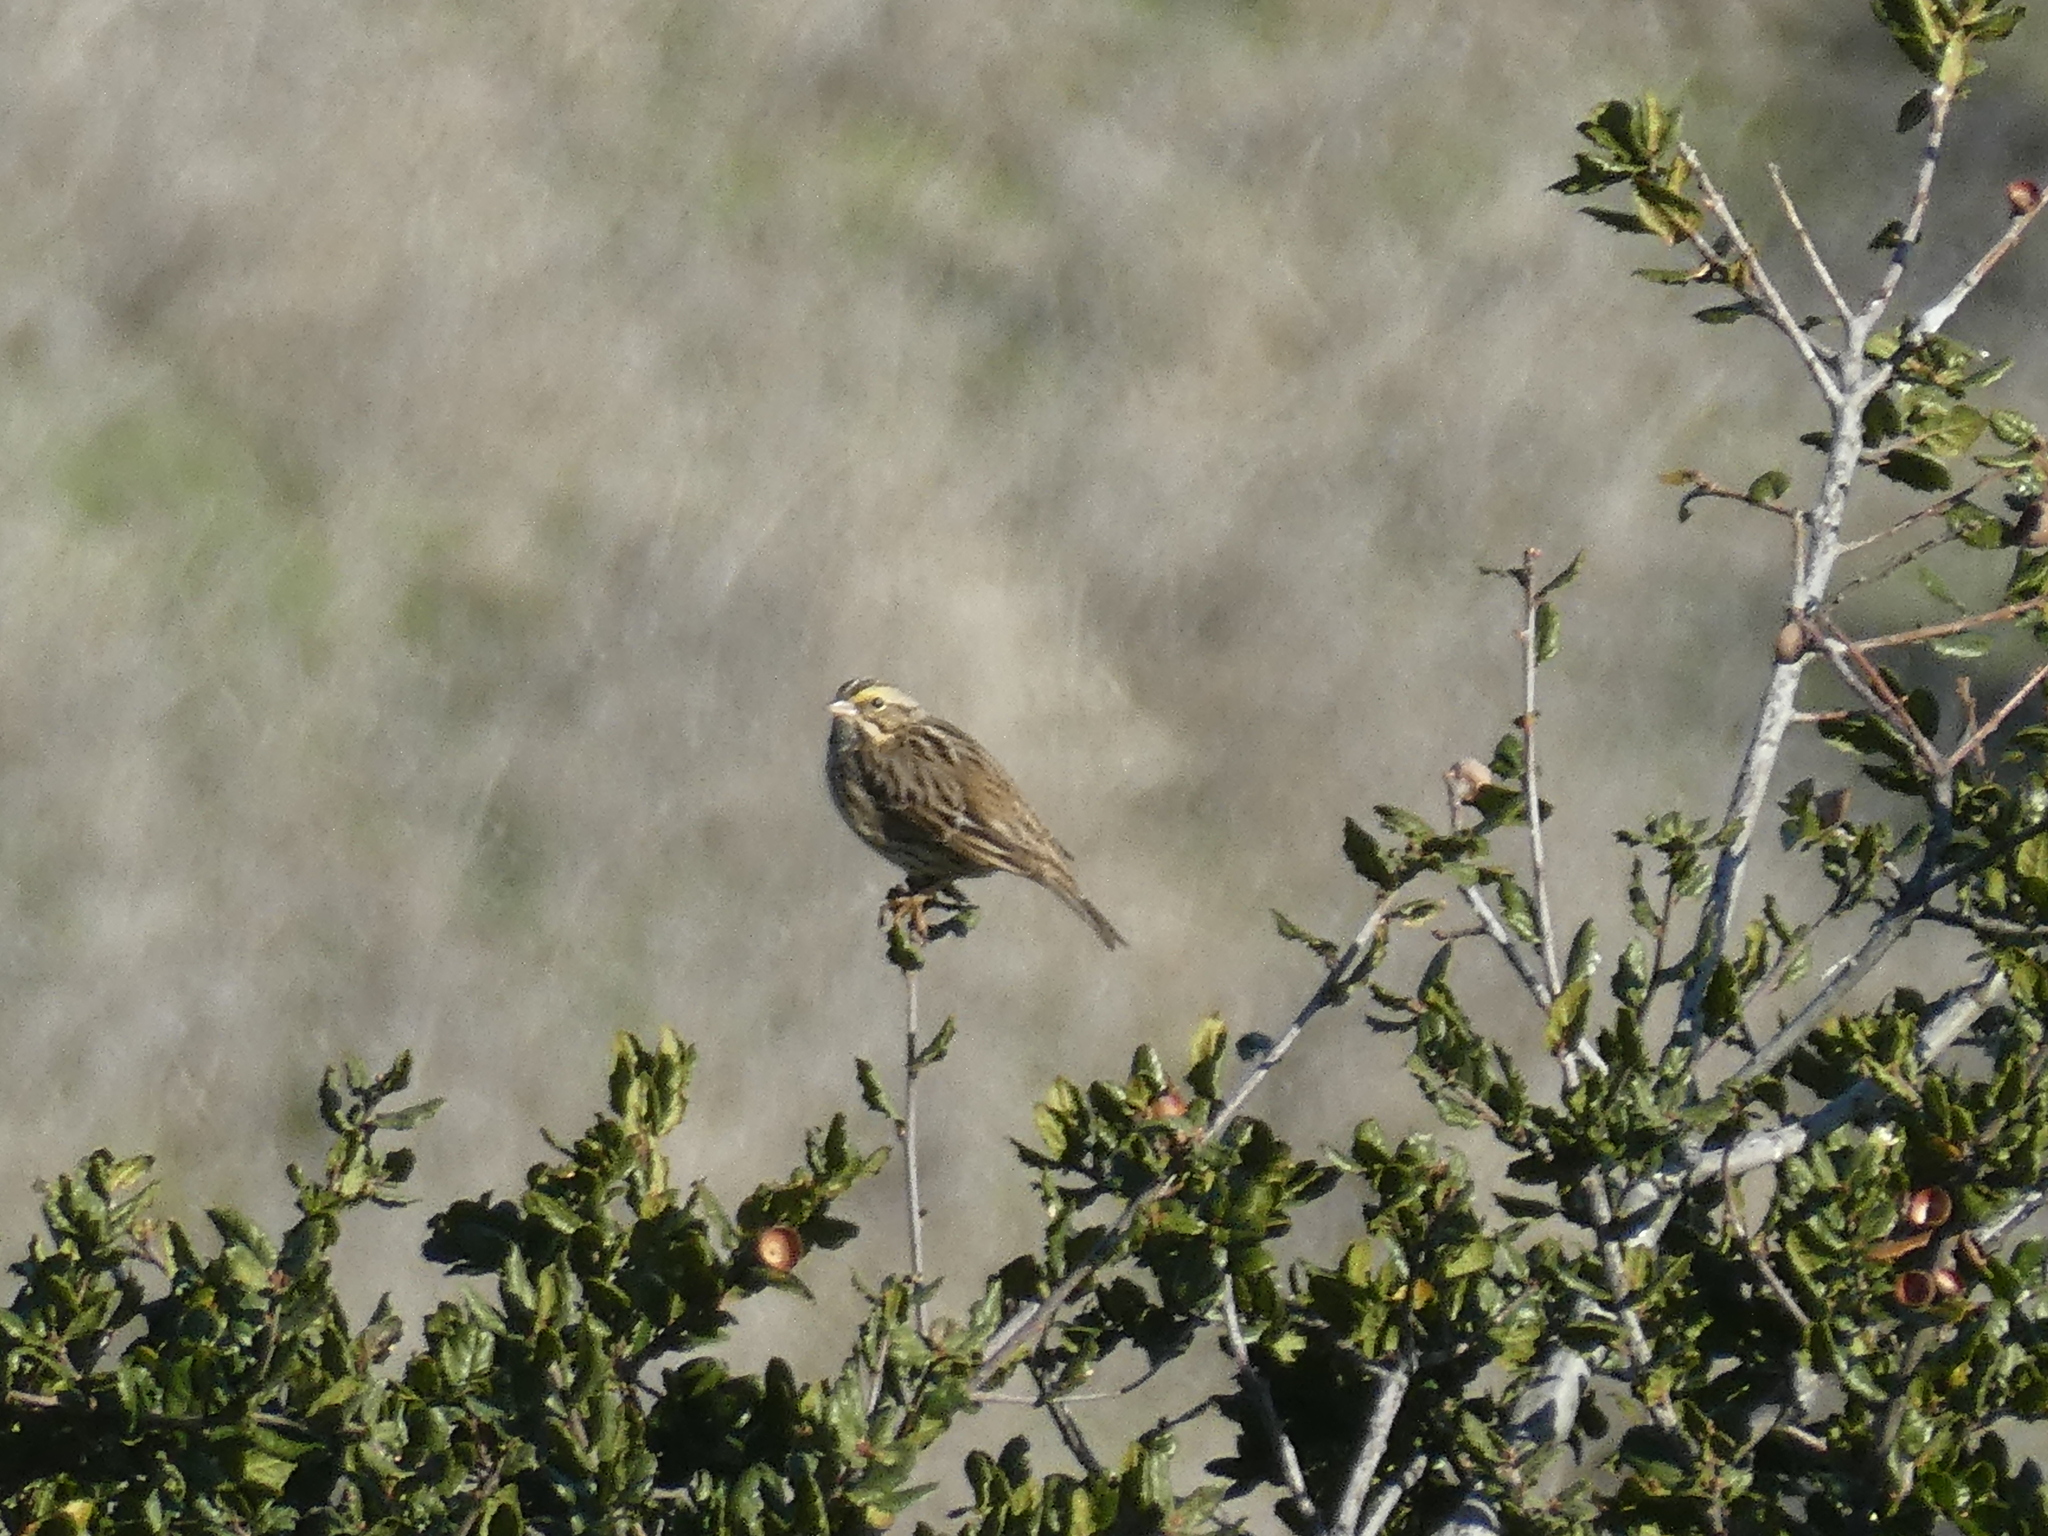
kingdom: Animalia
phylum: Chordata
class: Aves
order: Passeriformes
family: Passerellidae
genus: Passerculus
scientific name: Passerculus sandwichensis
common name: Savannah sparrow
